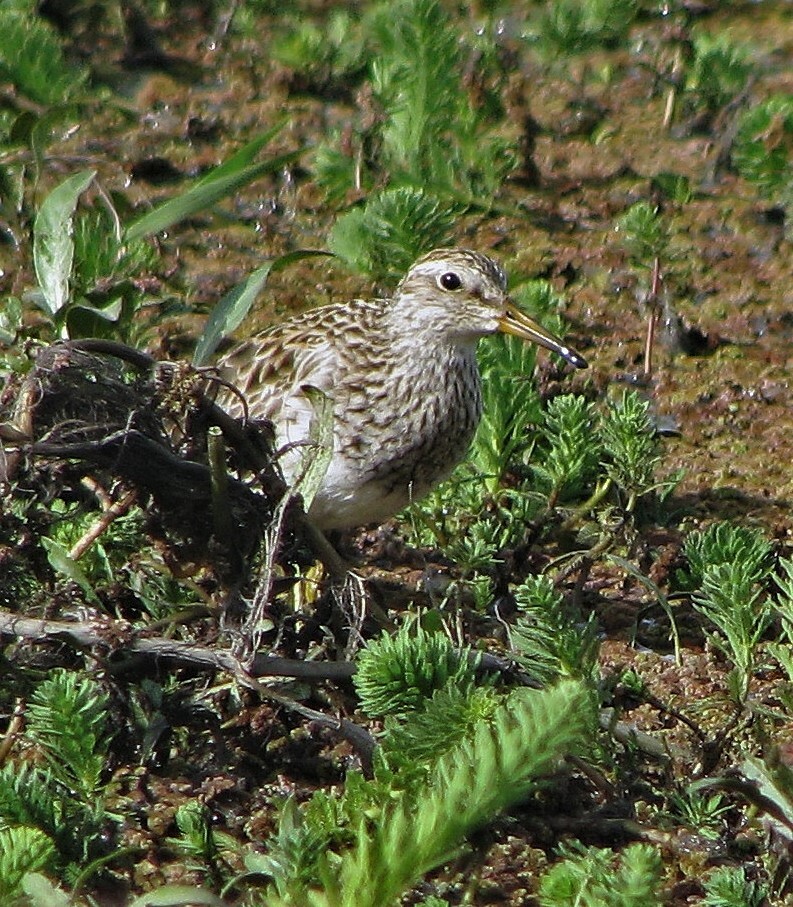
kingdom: Animalia
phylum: Chordata
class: Aves
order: Charadriiformes
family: Scolopacidae
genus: Calidris
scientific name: Calidris melanotos
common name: Pectoral sandpiper
